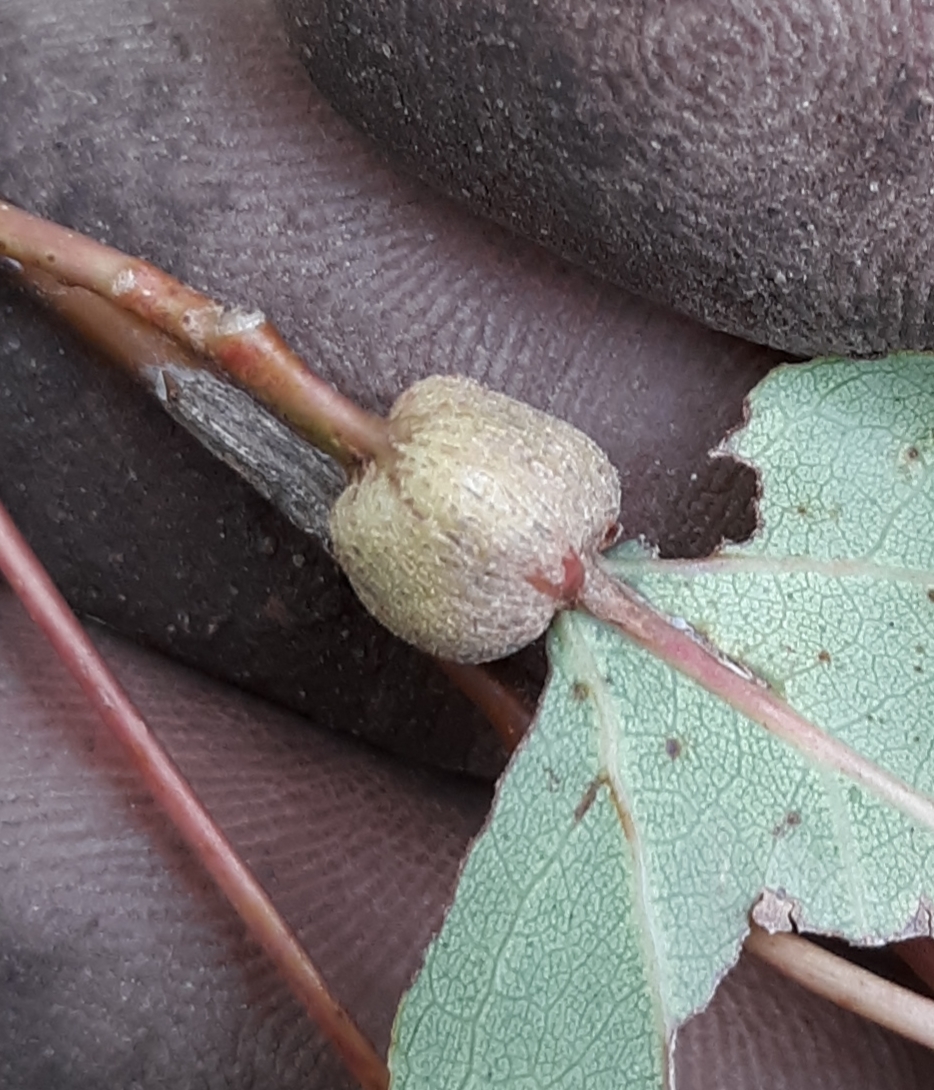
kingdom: Animalia
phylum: Arthropoda
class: Insecta
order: Lepidoptera
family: Nepticulidae
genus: Ectoedemia
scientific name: Ectoedemia populella
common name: Aspen petiole gall moth
